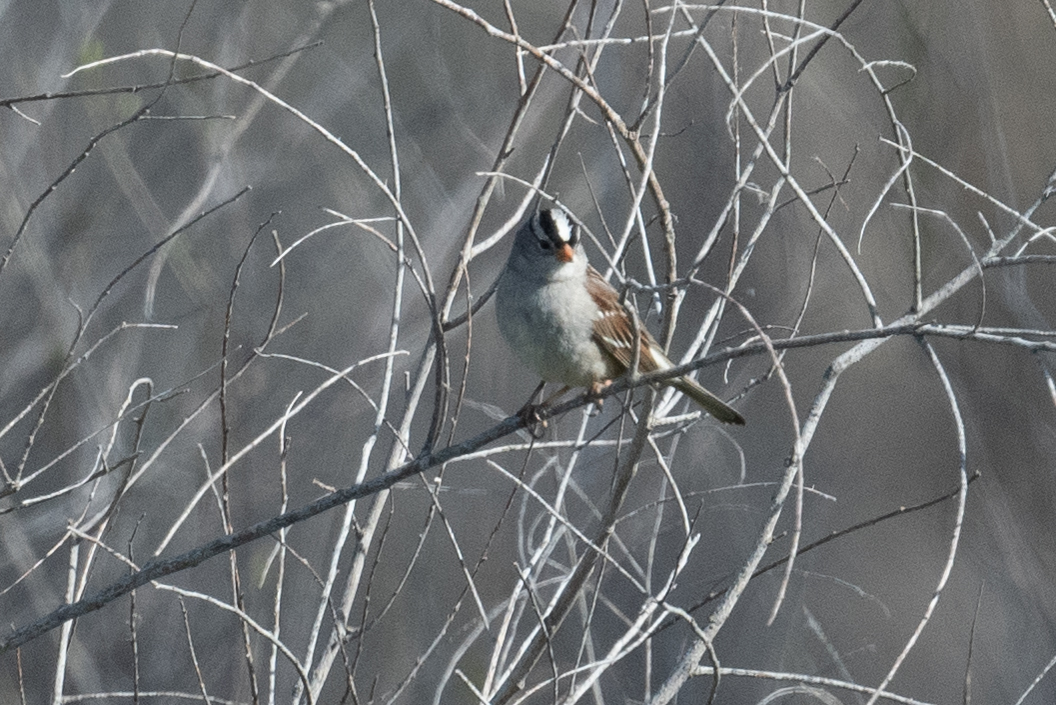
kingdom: Animalia
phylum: Chordata
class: Aves
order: Passeriformes
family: Passerellidae
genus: Zonotrichia
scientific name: Zonotrichia leucophrys
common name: White-crowned sparrow
